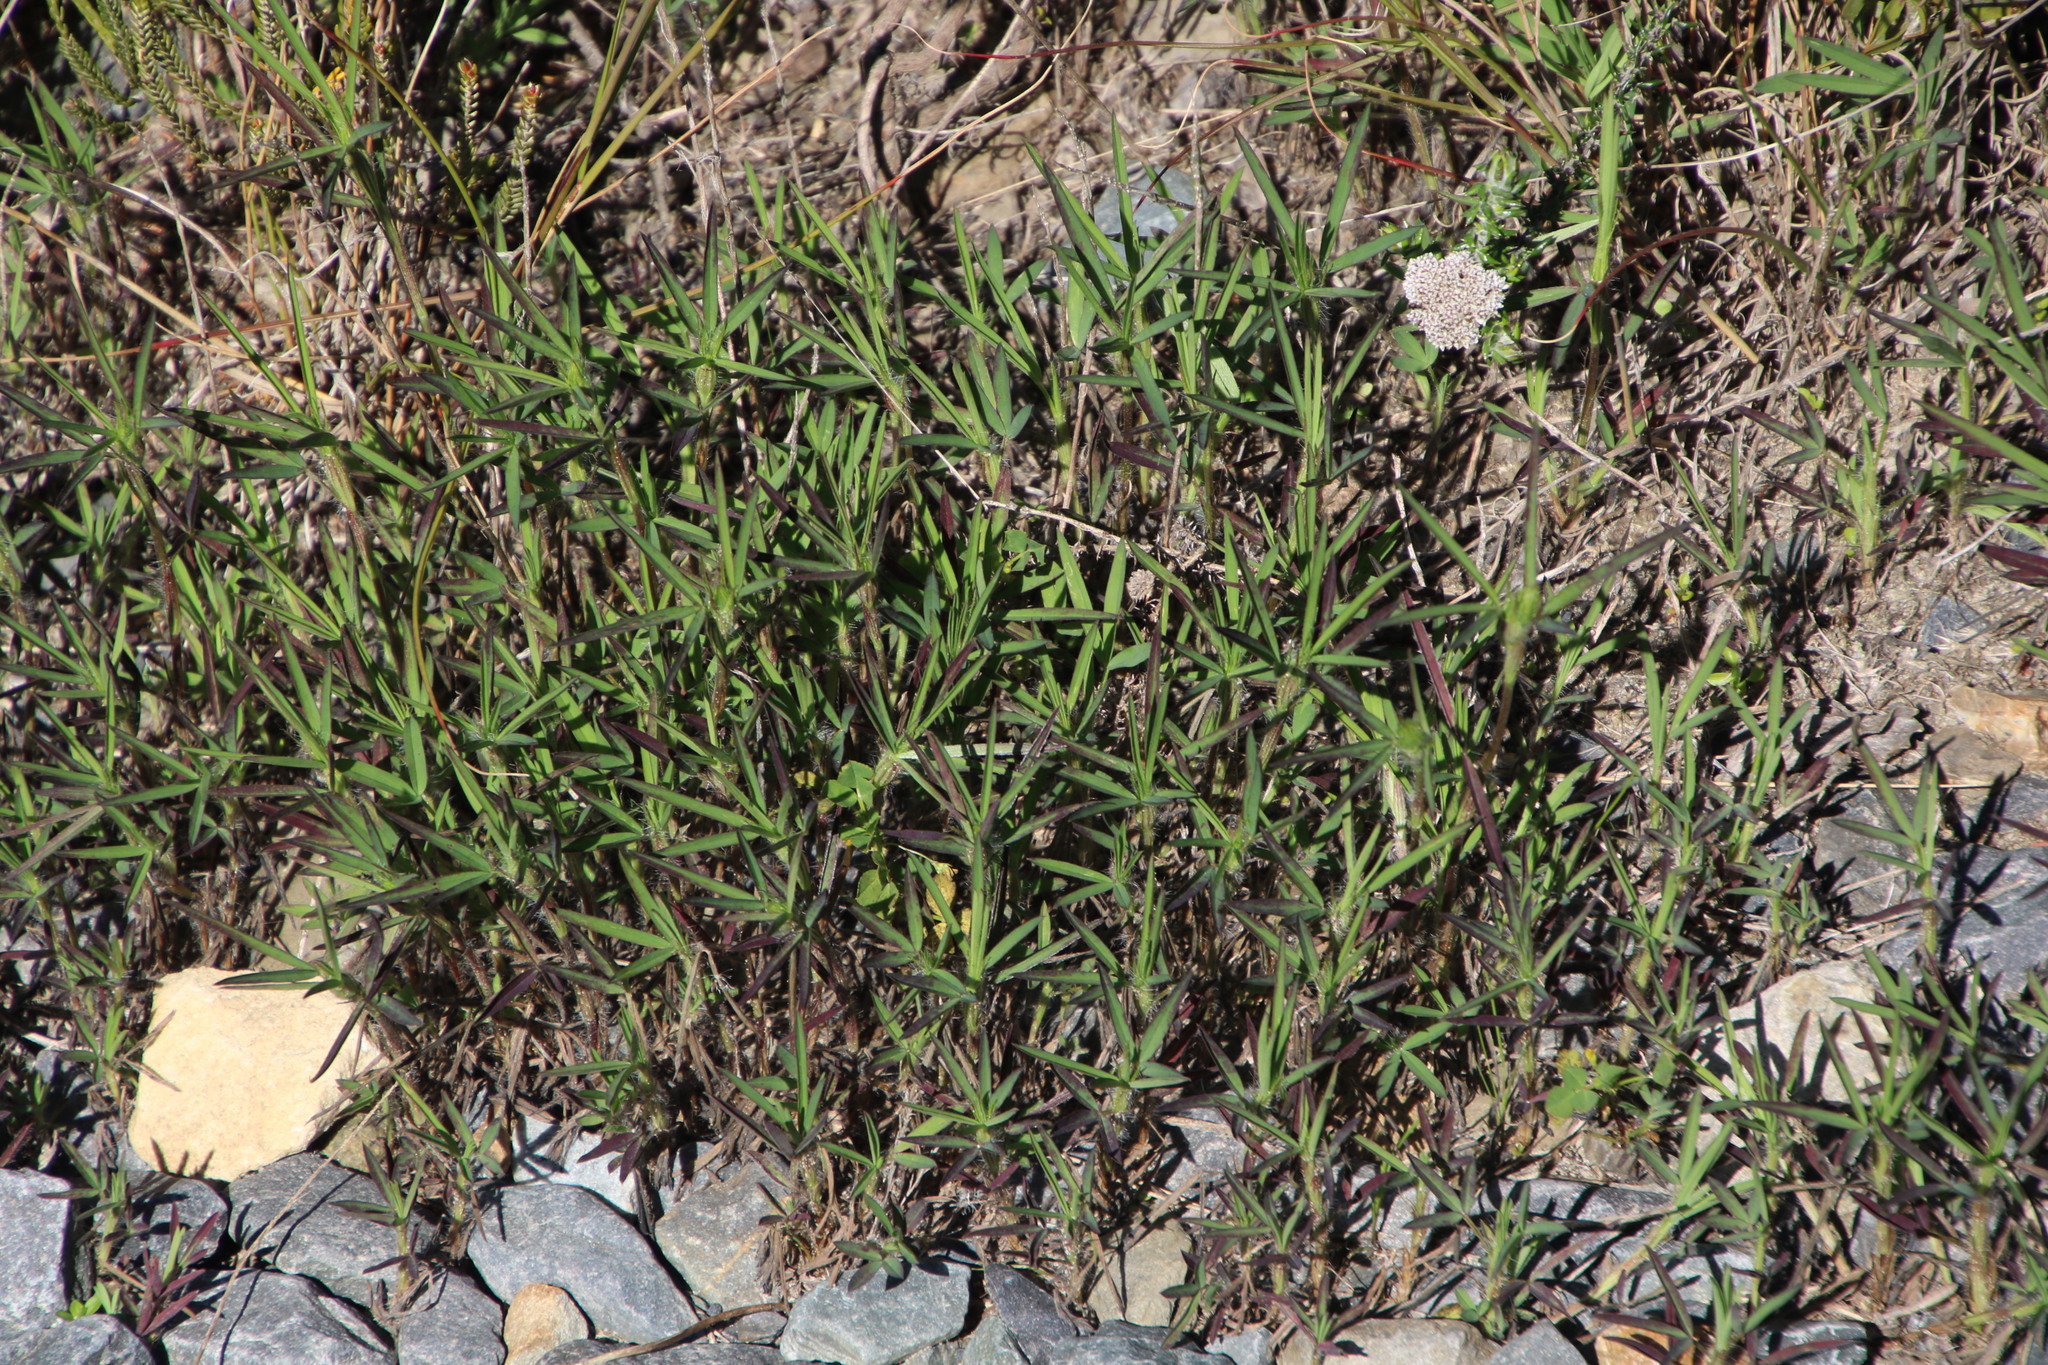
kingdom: Plantae
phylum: Tracheophyta
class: Magnoliopsida
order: Fabales
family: Fabaceae
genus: Medicago
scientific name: Medicago polymorpha
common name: Burclover
